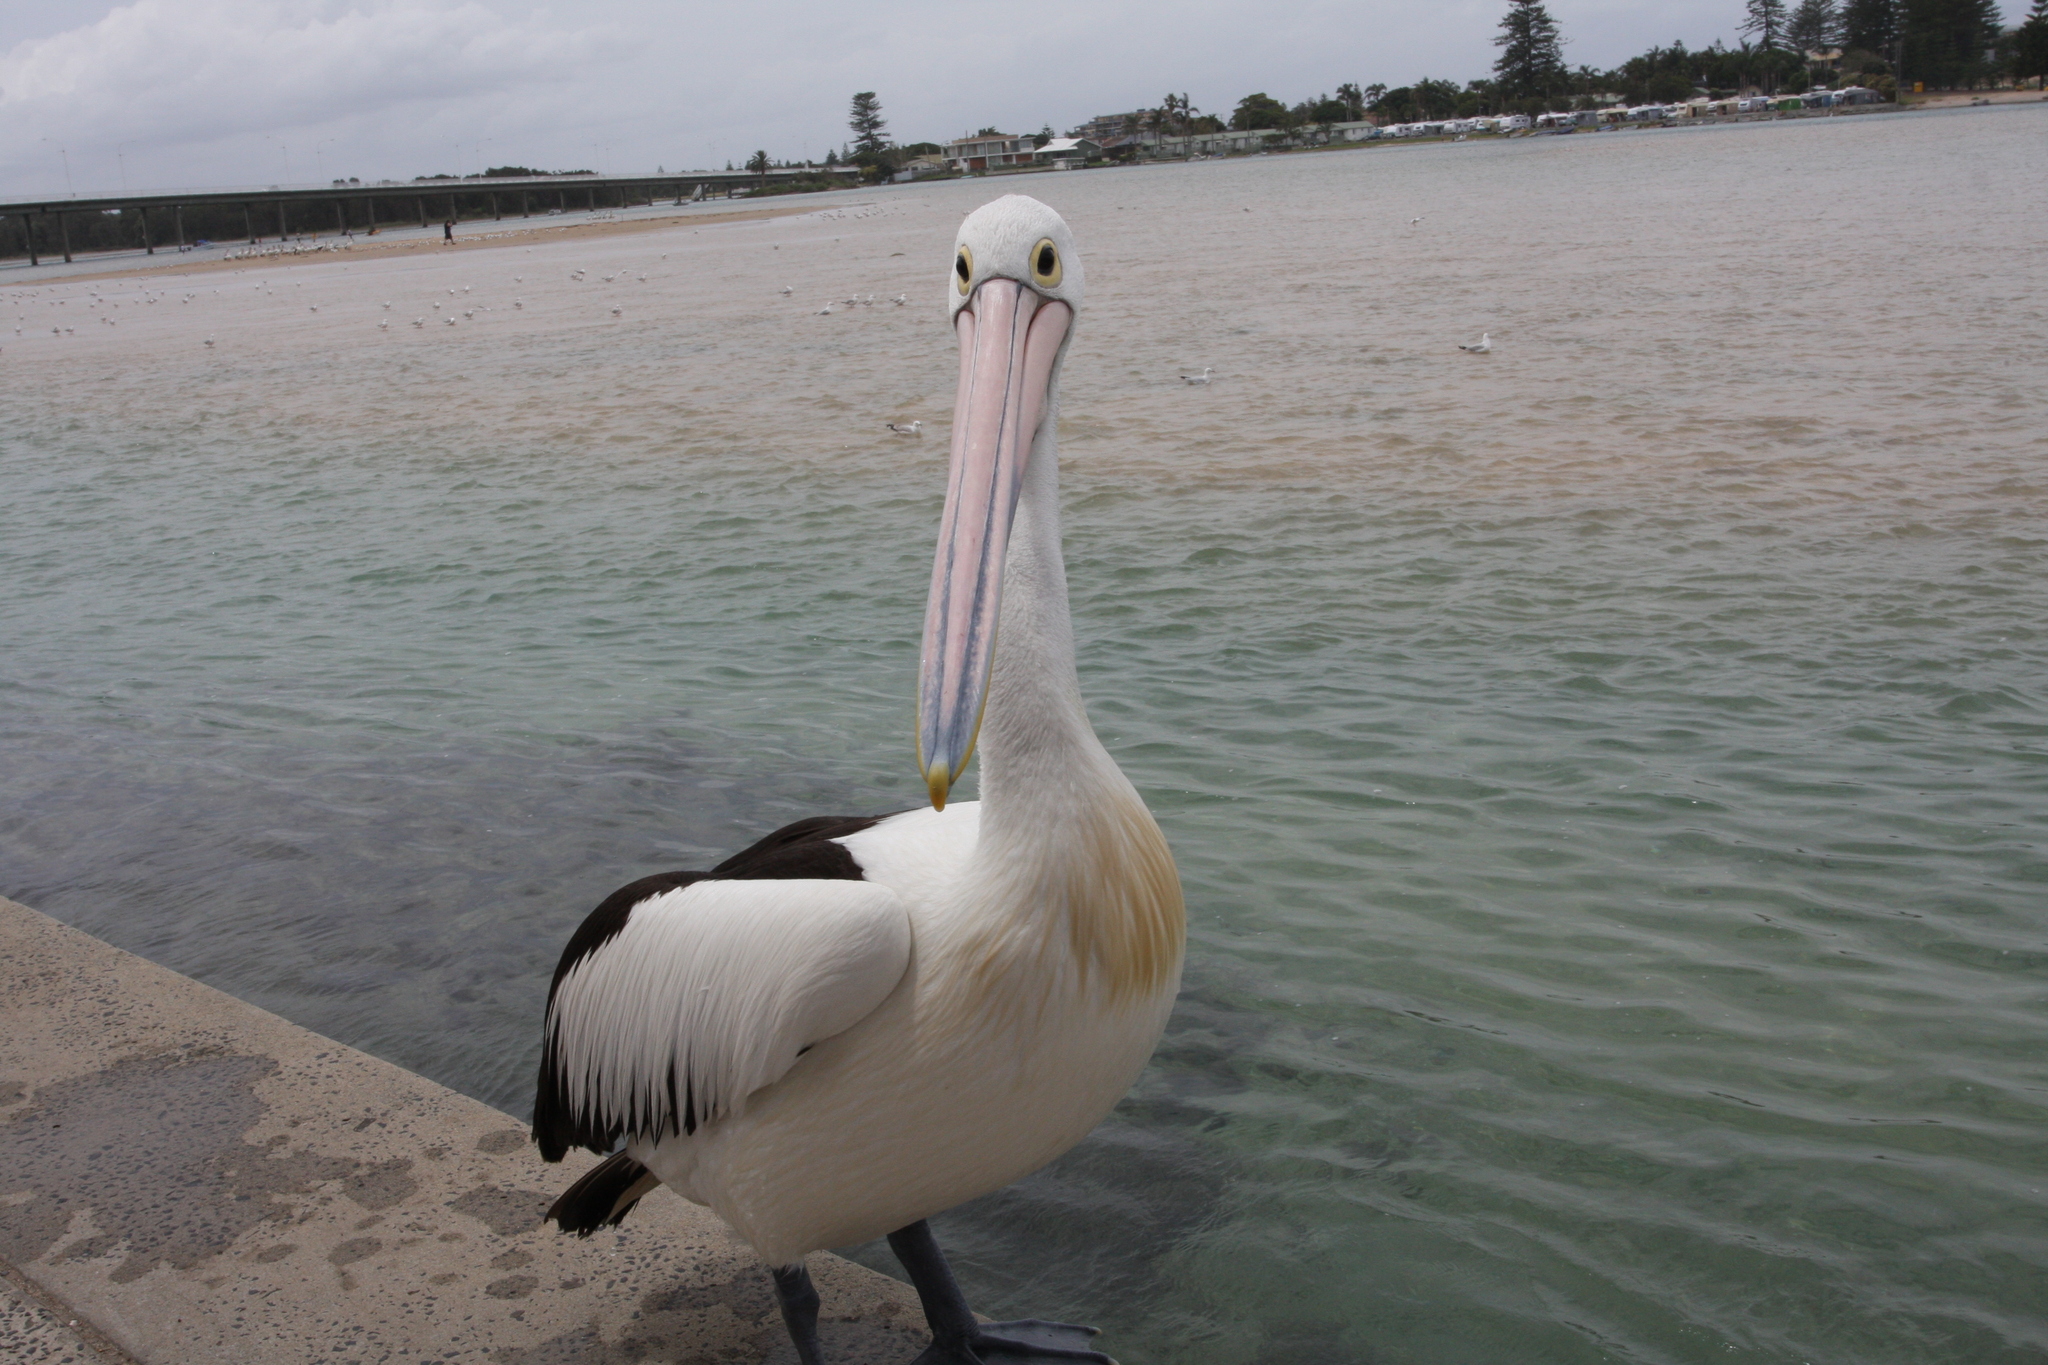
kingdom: Animalia
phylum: Chordata
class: Aves
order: Pelecaniformes
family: Pelecanidae
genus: Pelecanus
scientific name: Pelecanus conspicillatus
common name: Australian pelican
